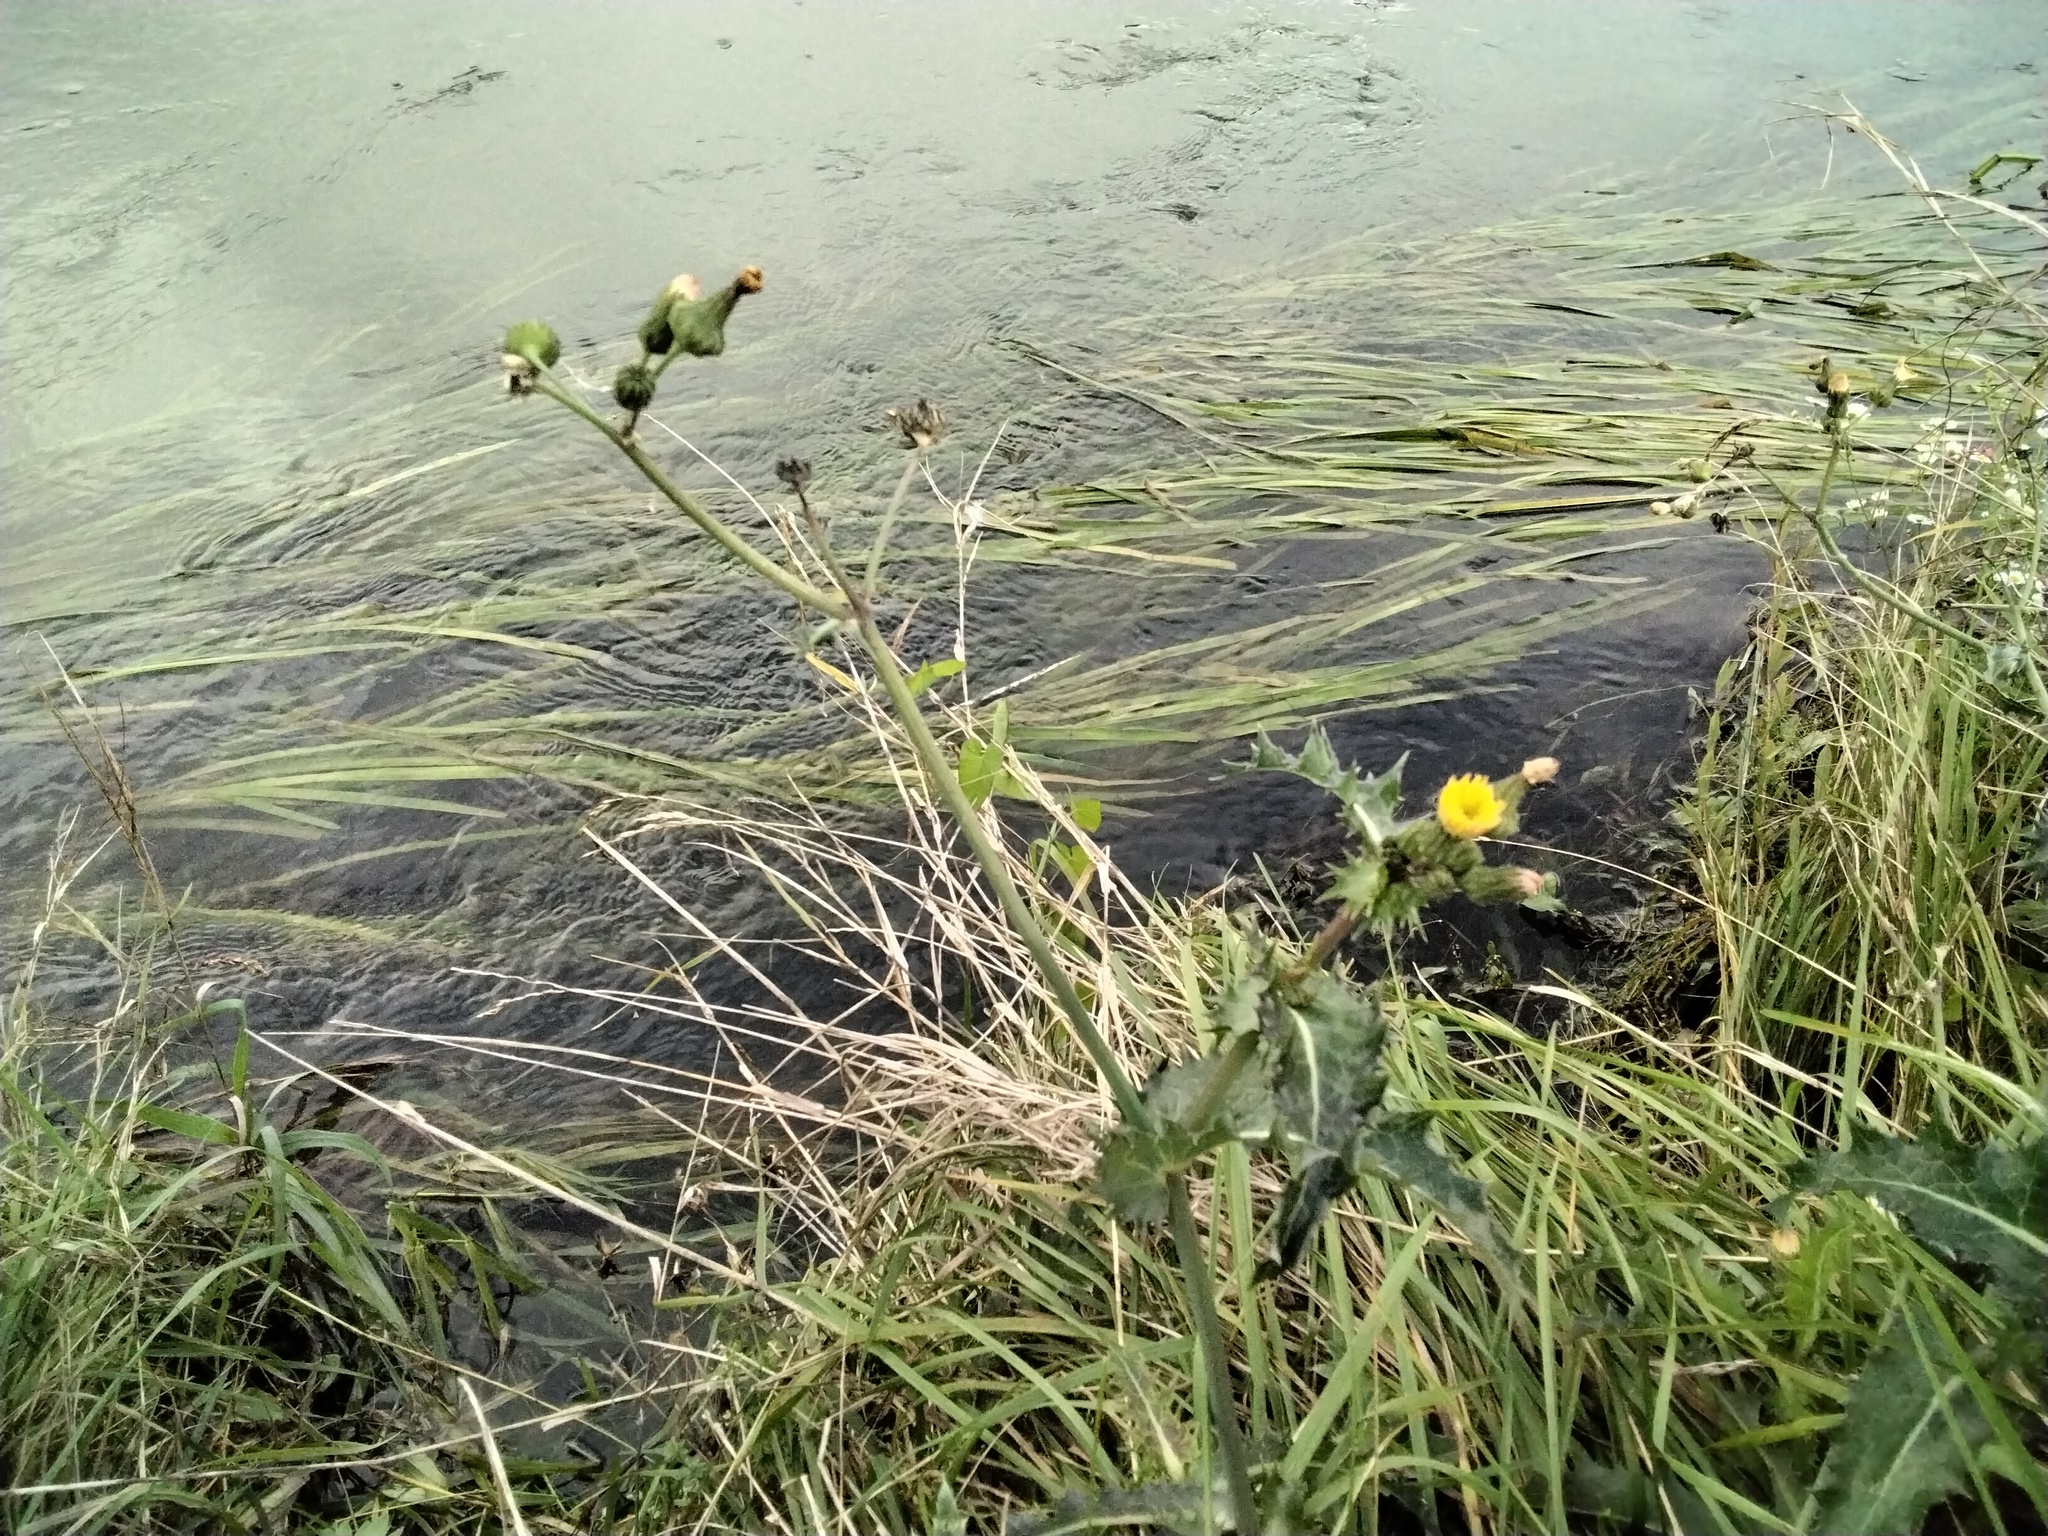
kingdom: Plantae
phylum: Tracheophyta
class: Magnoliopsida
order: Asterales
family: Asteraceae
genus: Sonchus
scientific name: Sonchus asper
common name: Prickly sow-thistle
